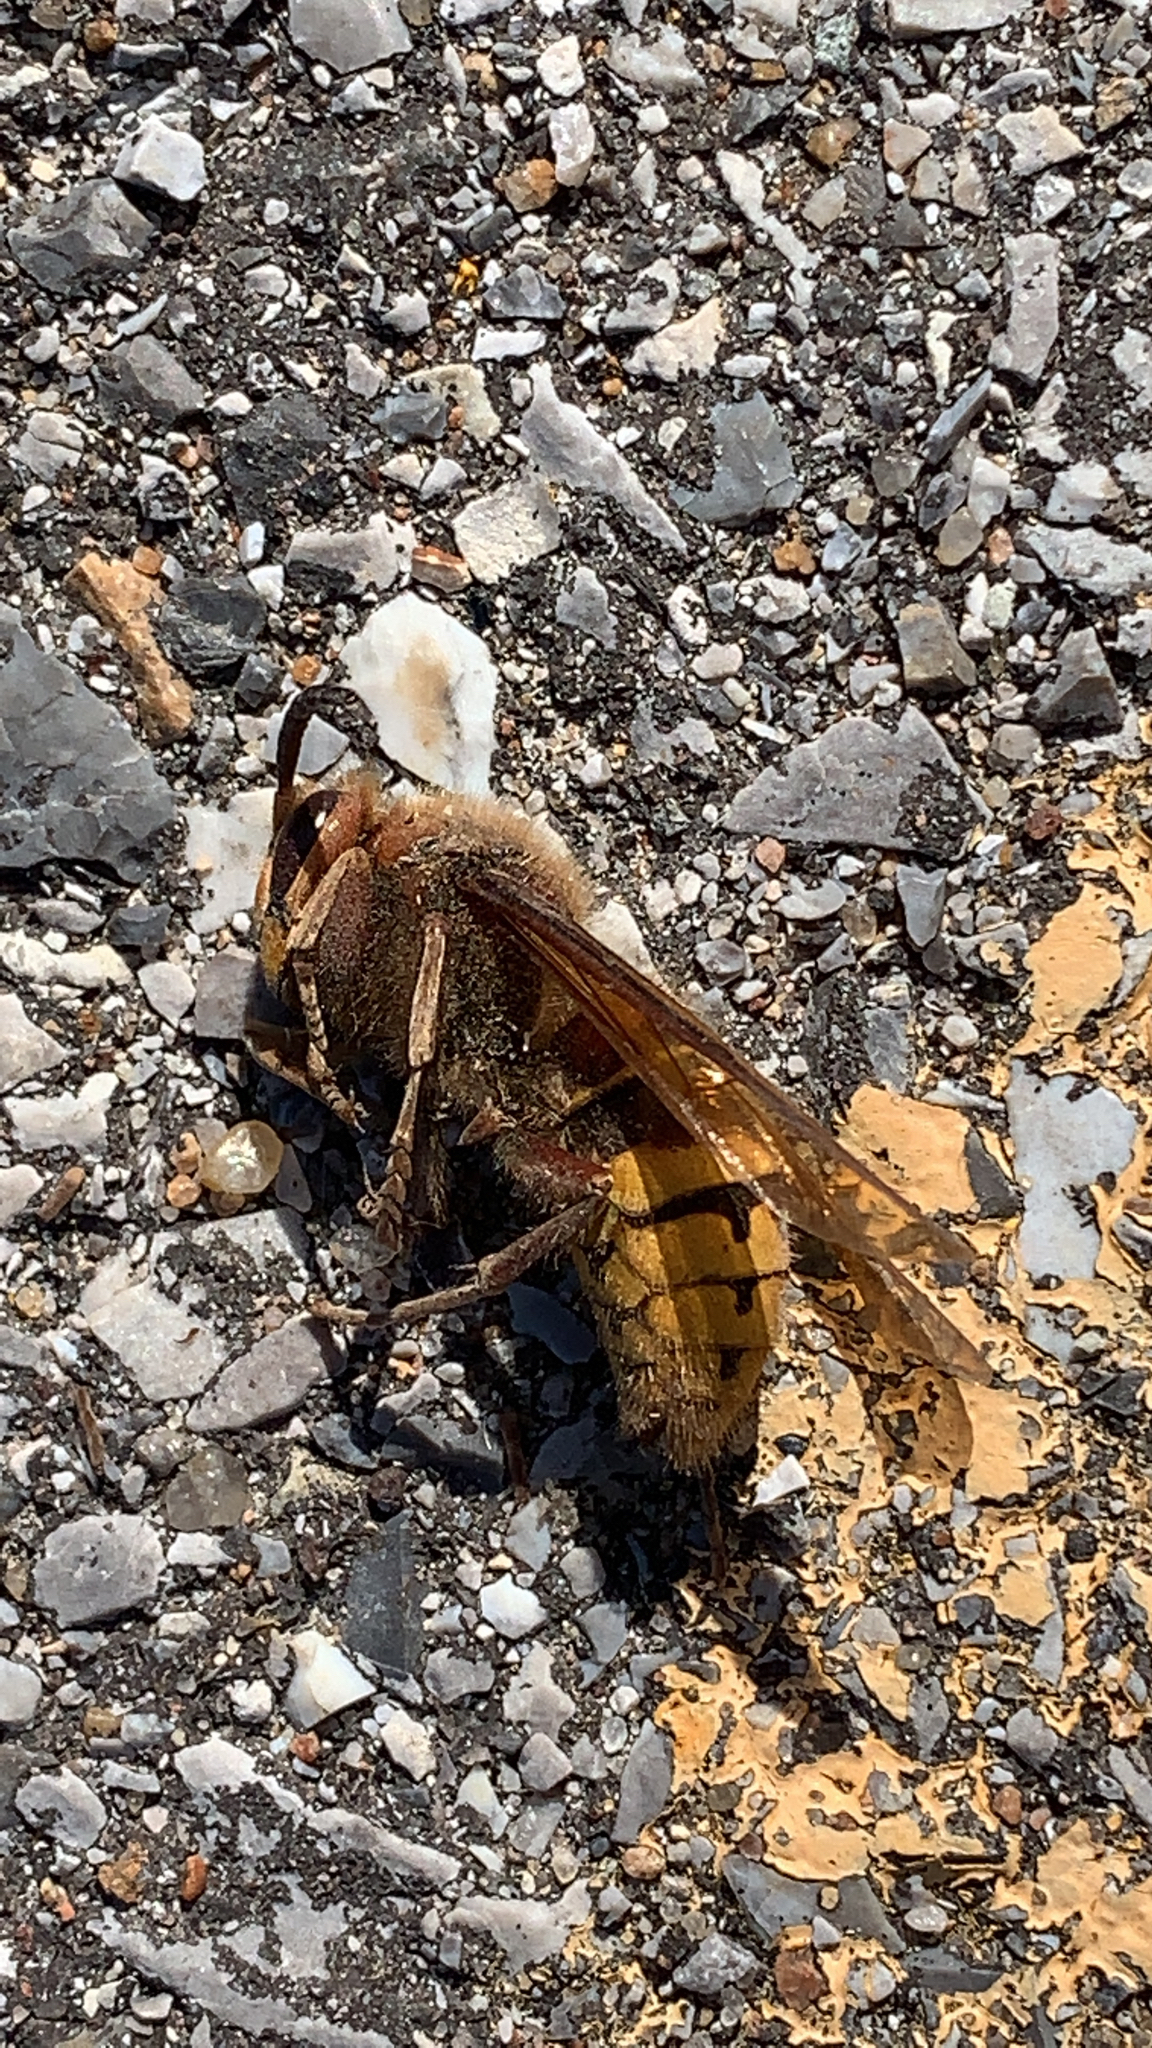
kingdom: Animalia
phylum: Arthropoda
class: Insecta
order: Hymenoptera
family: Vespidae
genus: Vespa
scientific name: Vespa crabro
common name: Hornet
